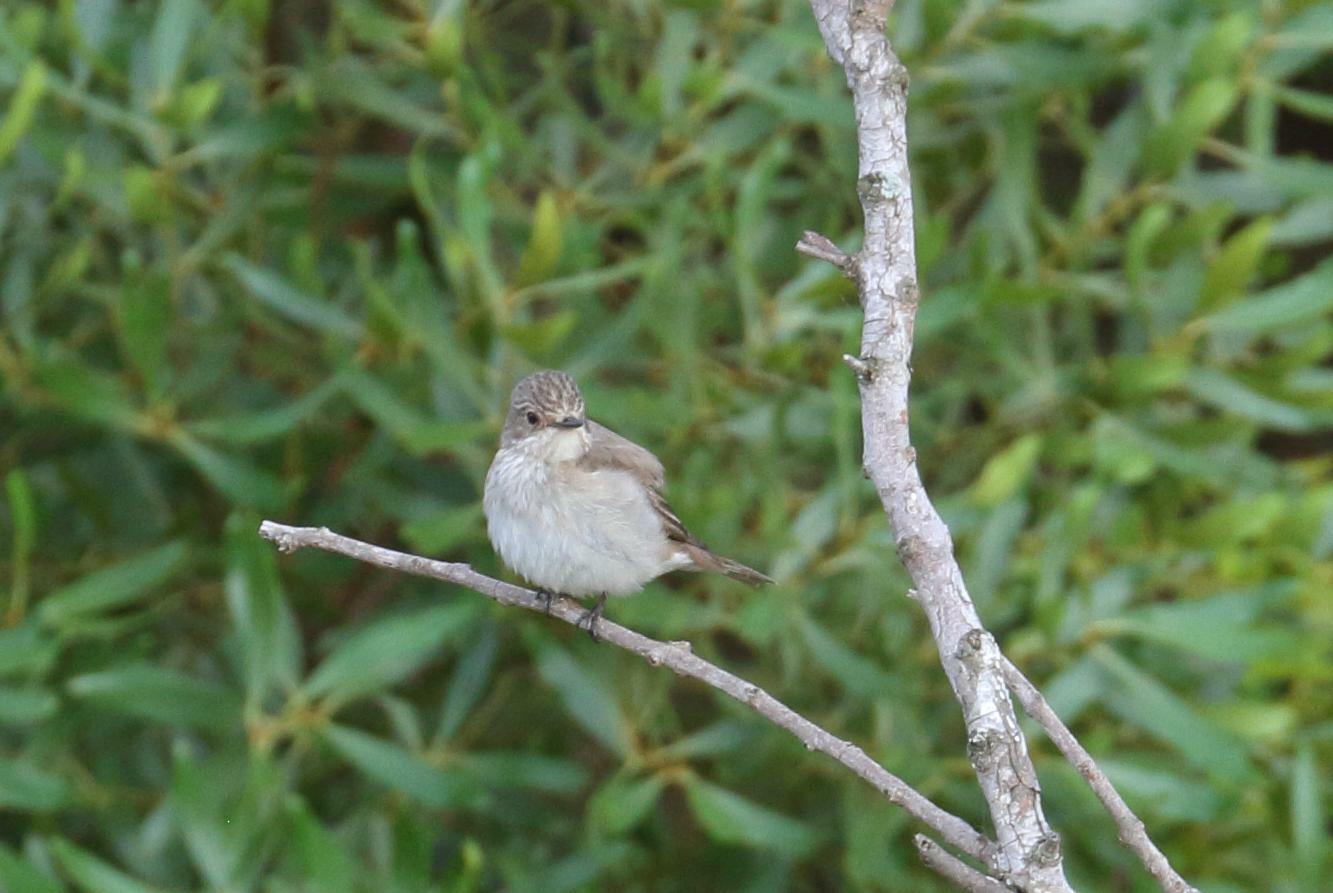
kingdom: Animalia
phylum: Chordata
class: Aves
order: Passeriformes
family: Muscicapidae
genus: Muscicapa
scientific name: Muscicapa striata
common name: Spotted flycatcher
